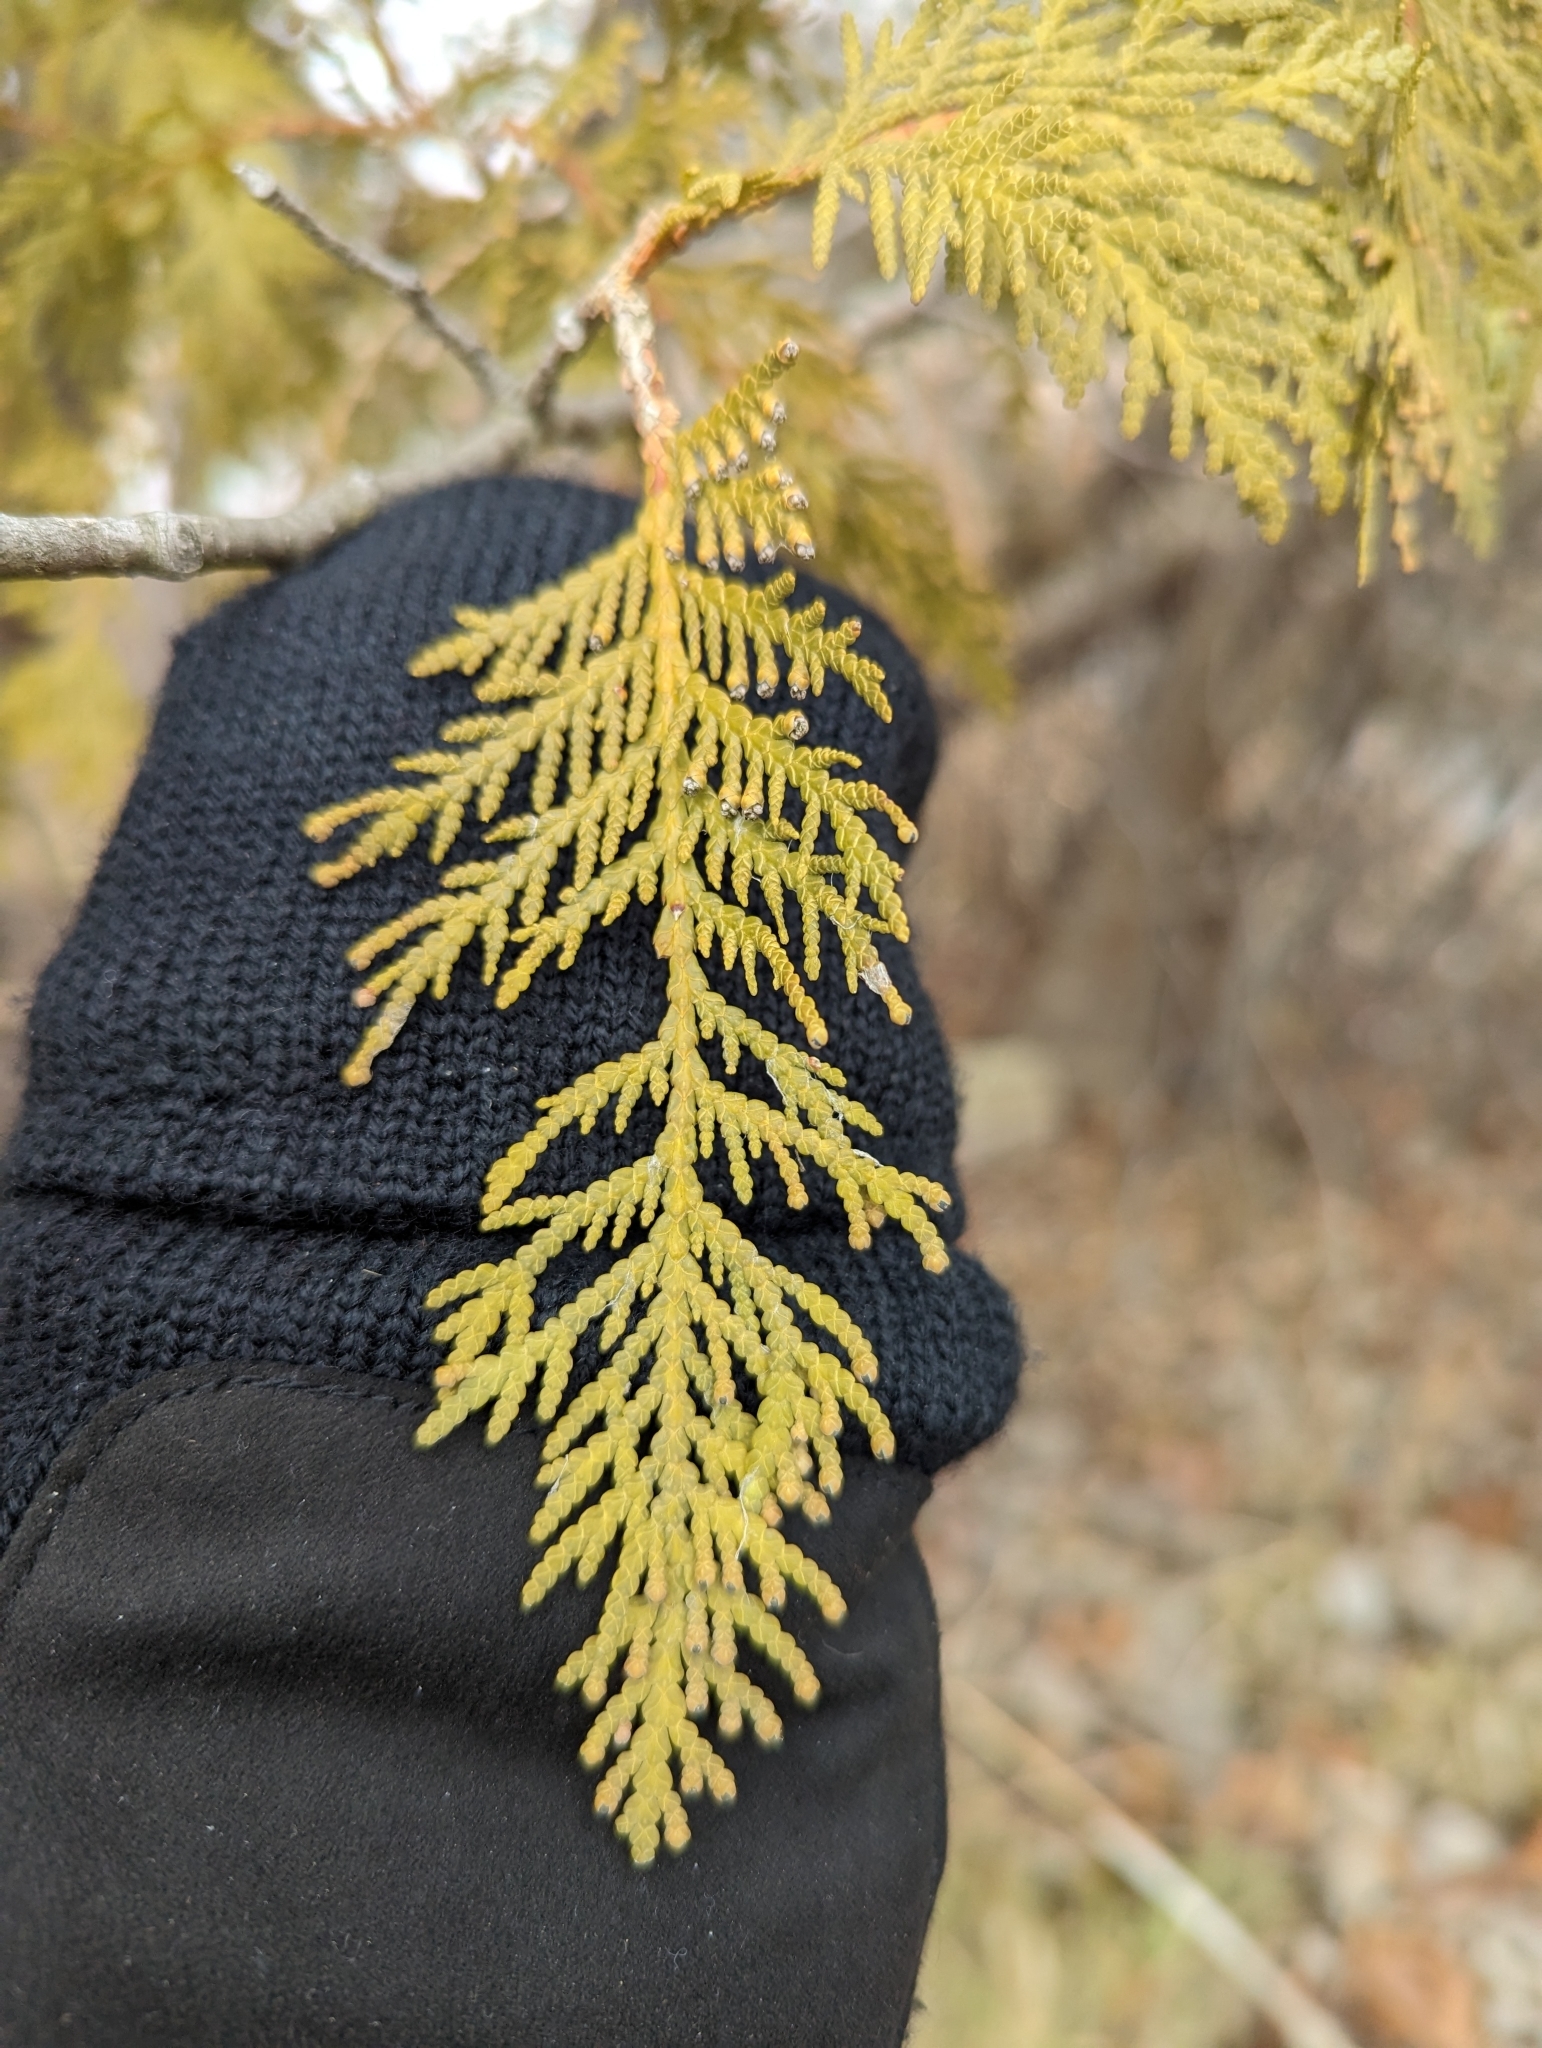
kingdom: Plantae
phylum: Tracheophyta
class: Pinopsida
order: Pinales
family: Cupressaceae
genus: Thuja
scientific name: Thuja occidentalis
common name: Northern white-cedar
